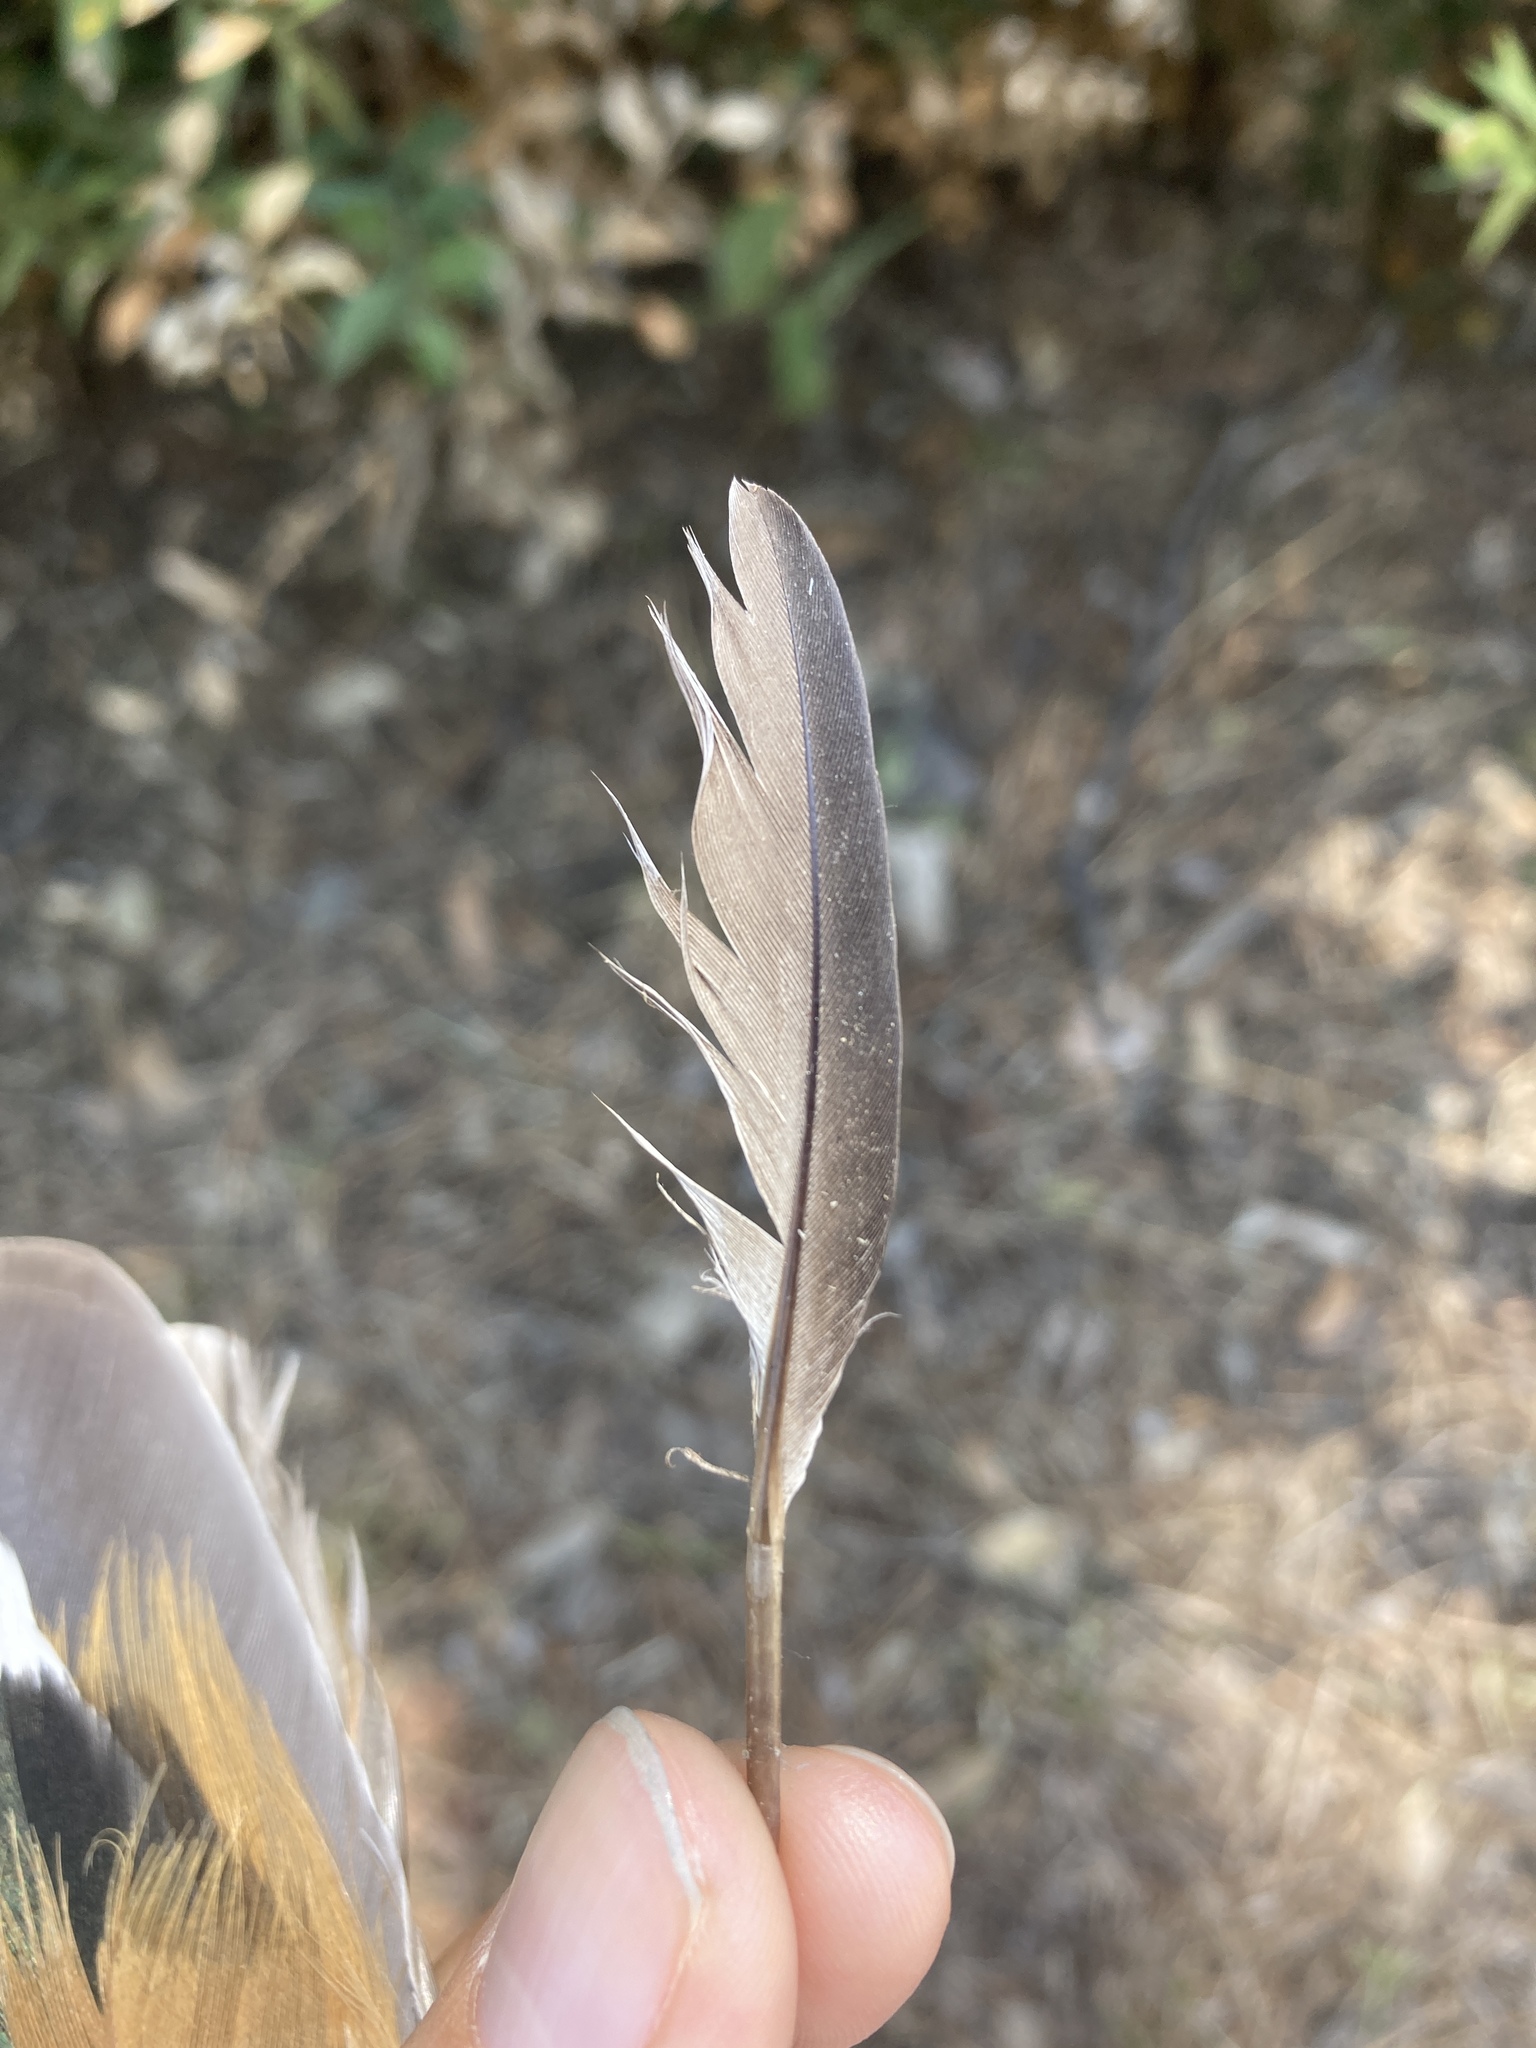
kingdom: Animalia
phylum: Chordata
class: Aves
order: Columbiformes
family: Columbidae
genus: Columba
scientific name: Columba livia
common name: Rock pigeon
